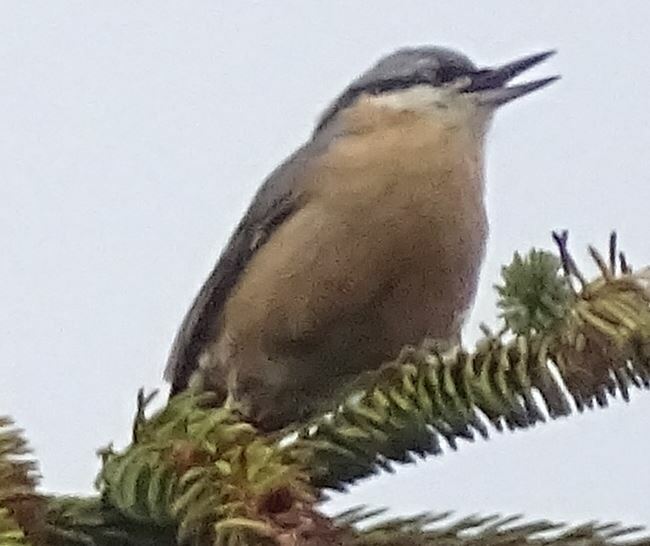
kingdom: Animalia
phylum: Chordata
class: Aves
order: Passeriformes
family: Sittidae
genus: Sitta
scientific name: Sitta europaea
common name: Eurasian nuthatch
